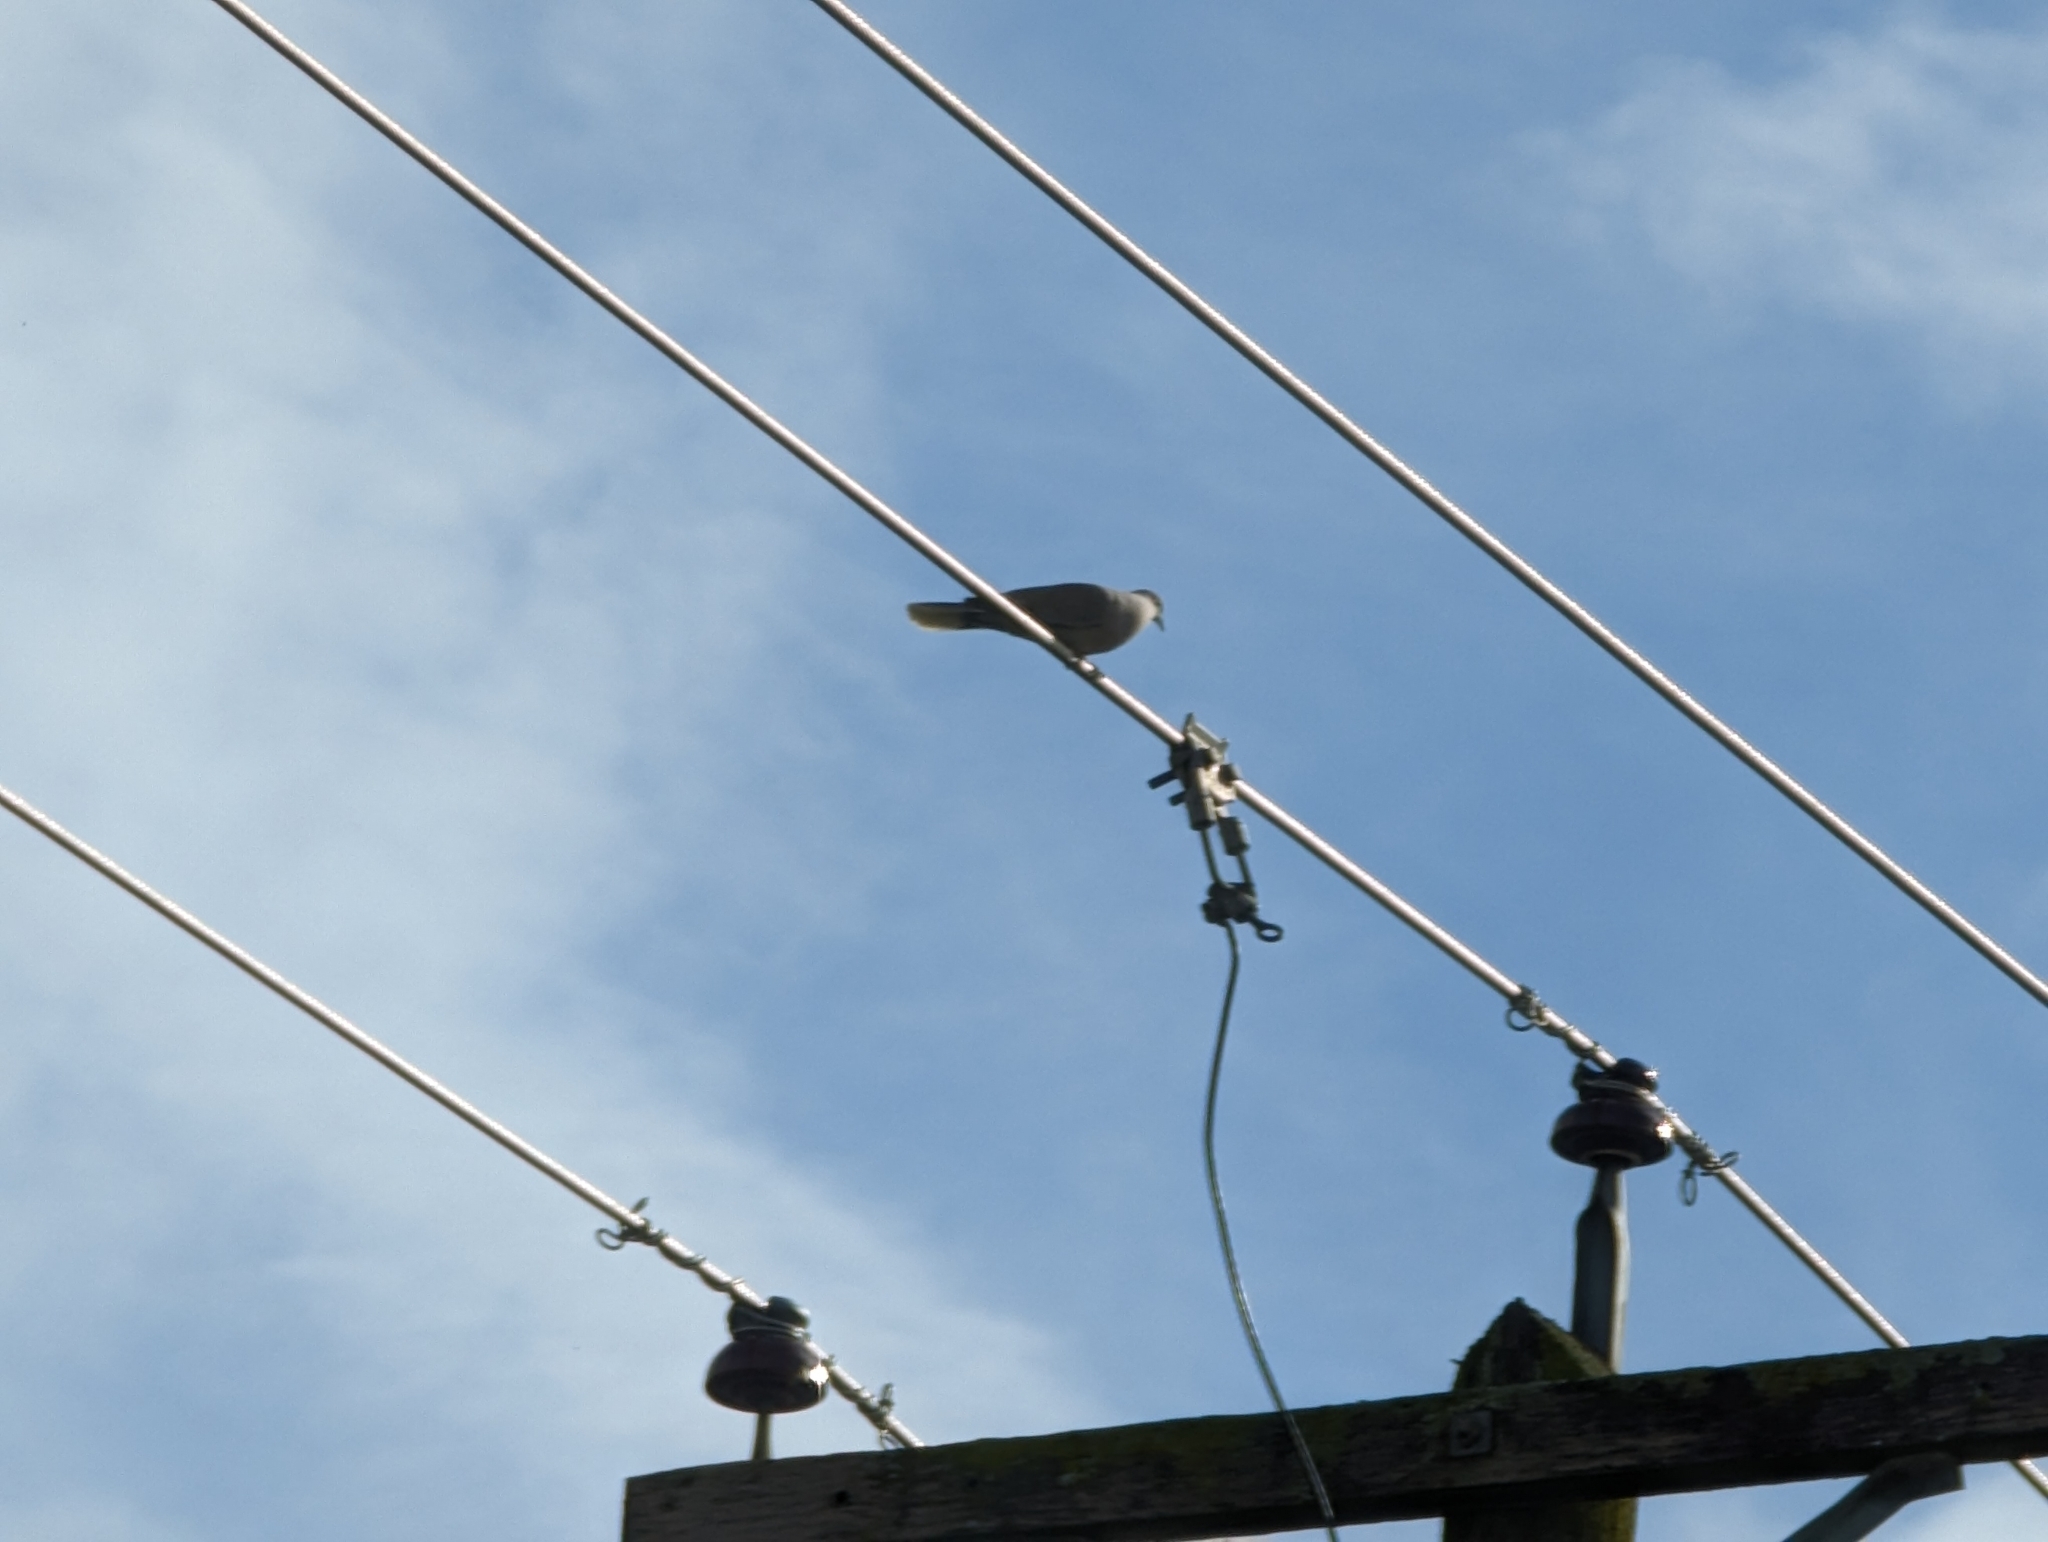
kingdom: Animalia
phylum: Chordata
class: Aves
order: Columbiformes
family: Columbidae
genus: Streptopelia
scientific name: Streptopelia decaocto
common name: Eurasian collared dove
